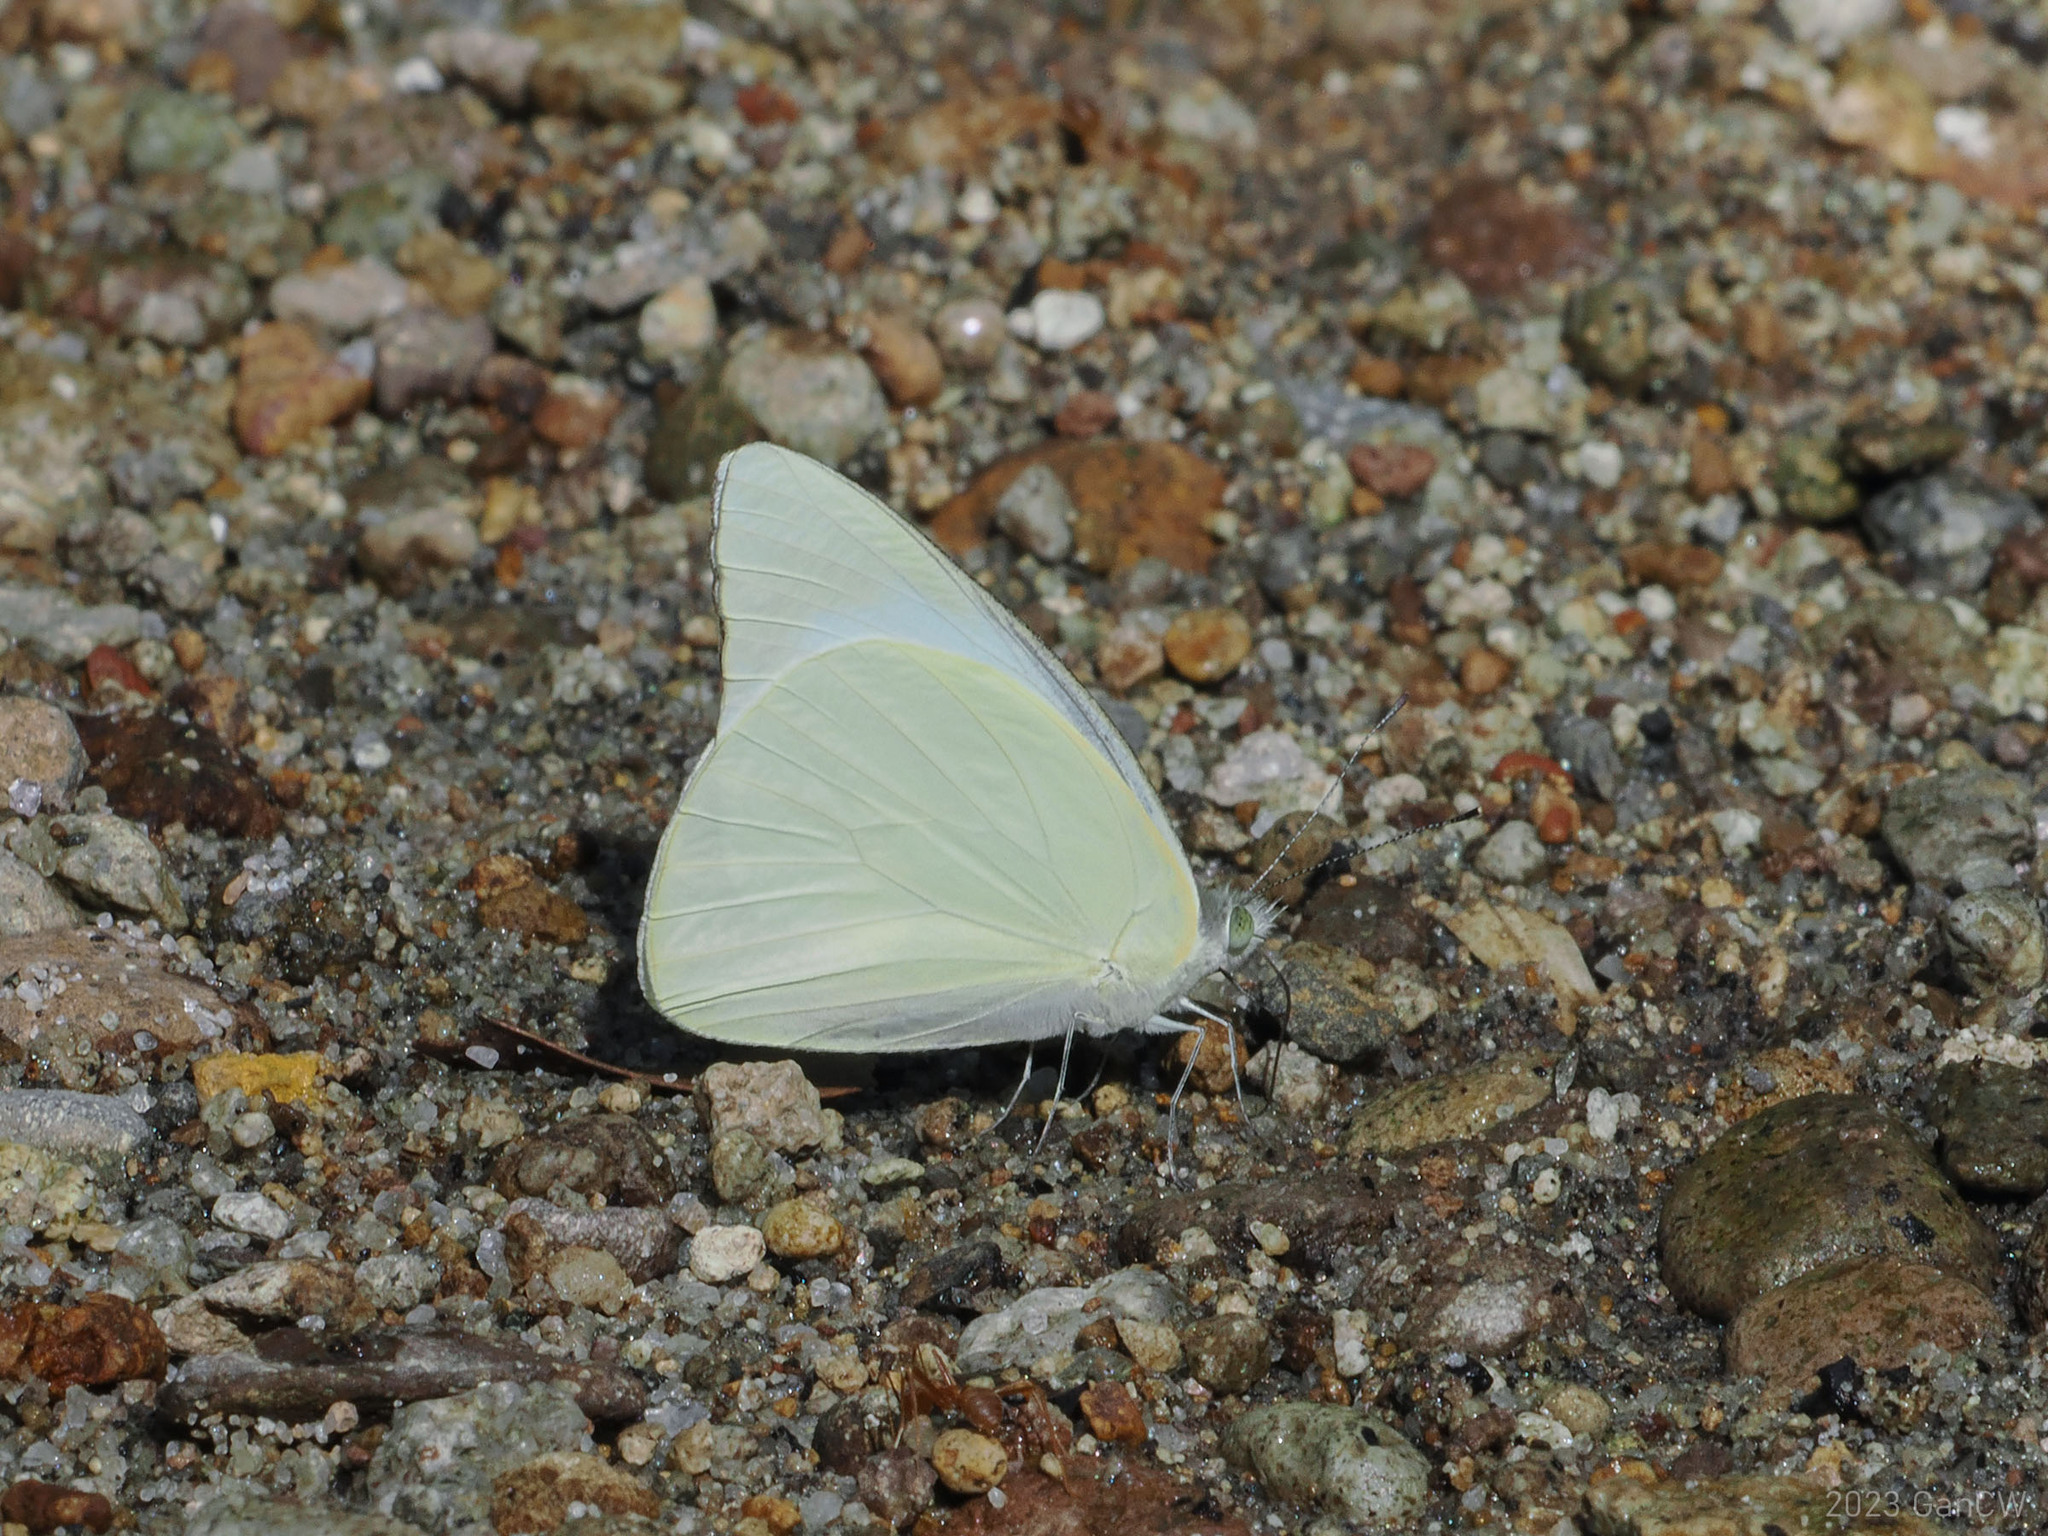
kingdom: Animalia
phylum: Arthropoda
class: Insecta
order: Lepidoptera
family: Pieridae
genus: Appias
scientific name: Appias albina
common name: Common albatross
